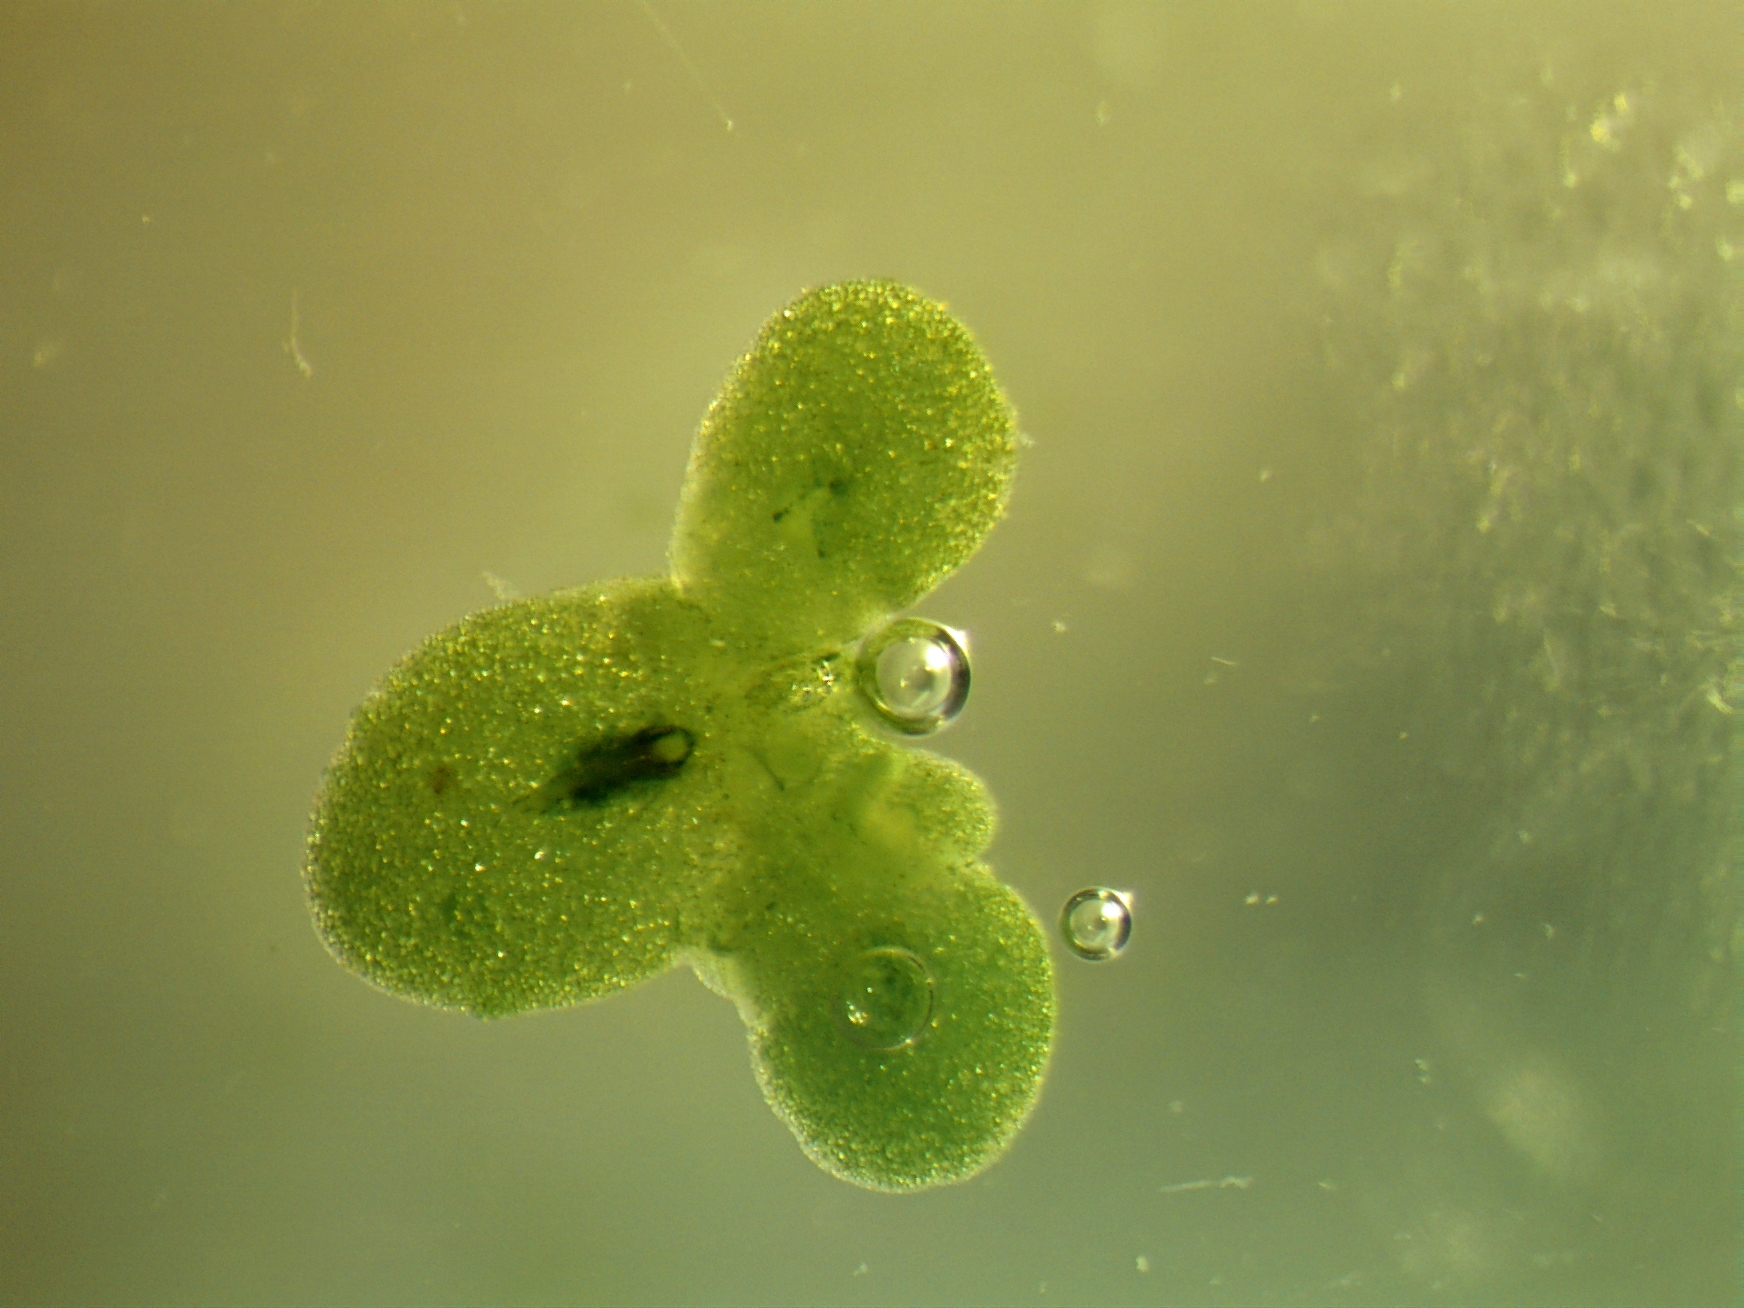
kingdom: Plantae
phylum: Tracheophyta
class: Liliopsida
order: Alismatales
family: Araceae
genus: Lemna
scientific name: Lemna minor
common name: Common duckweed
